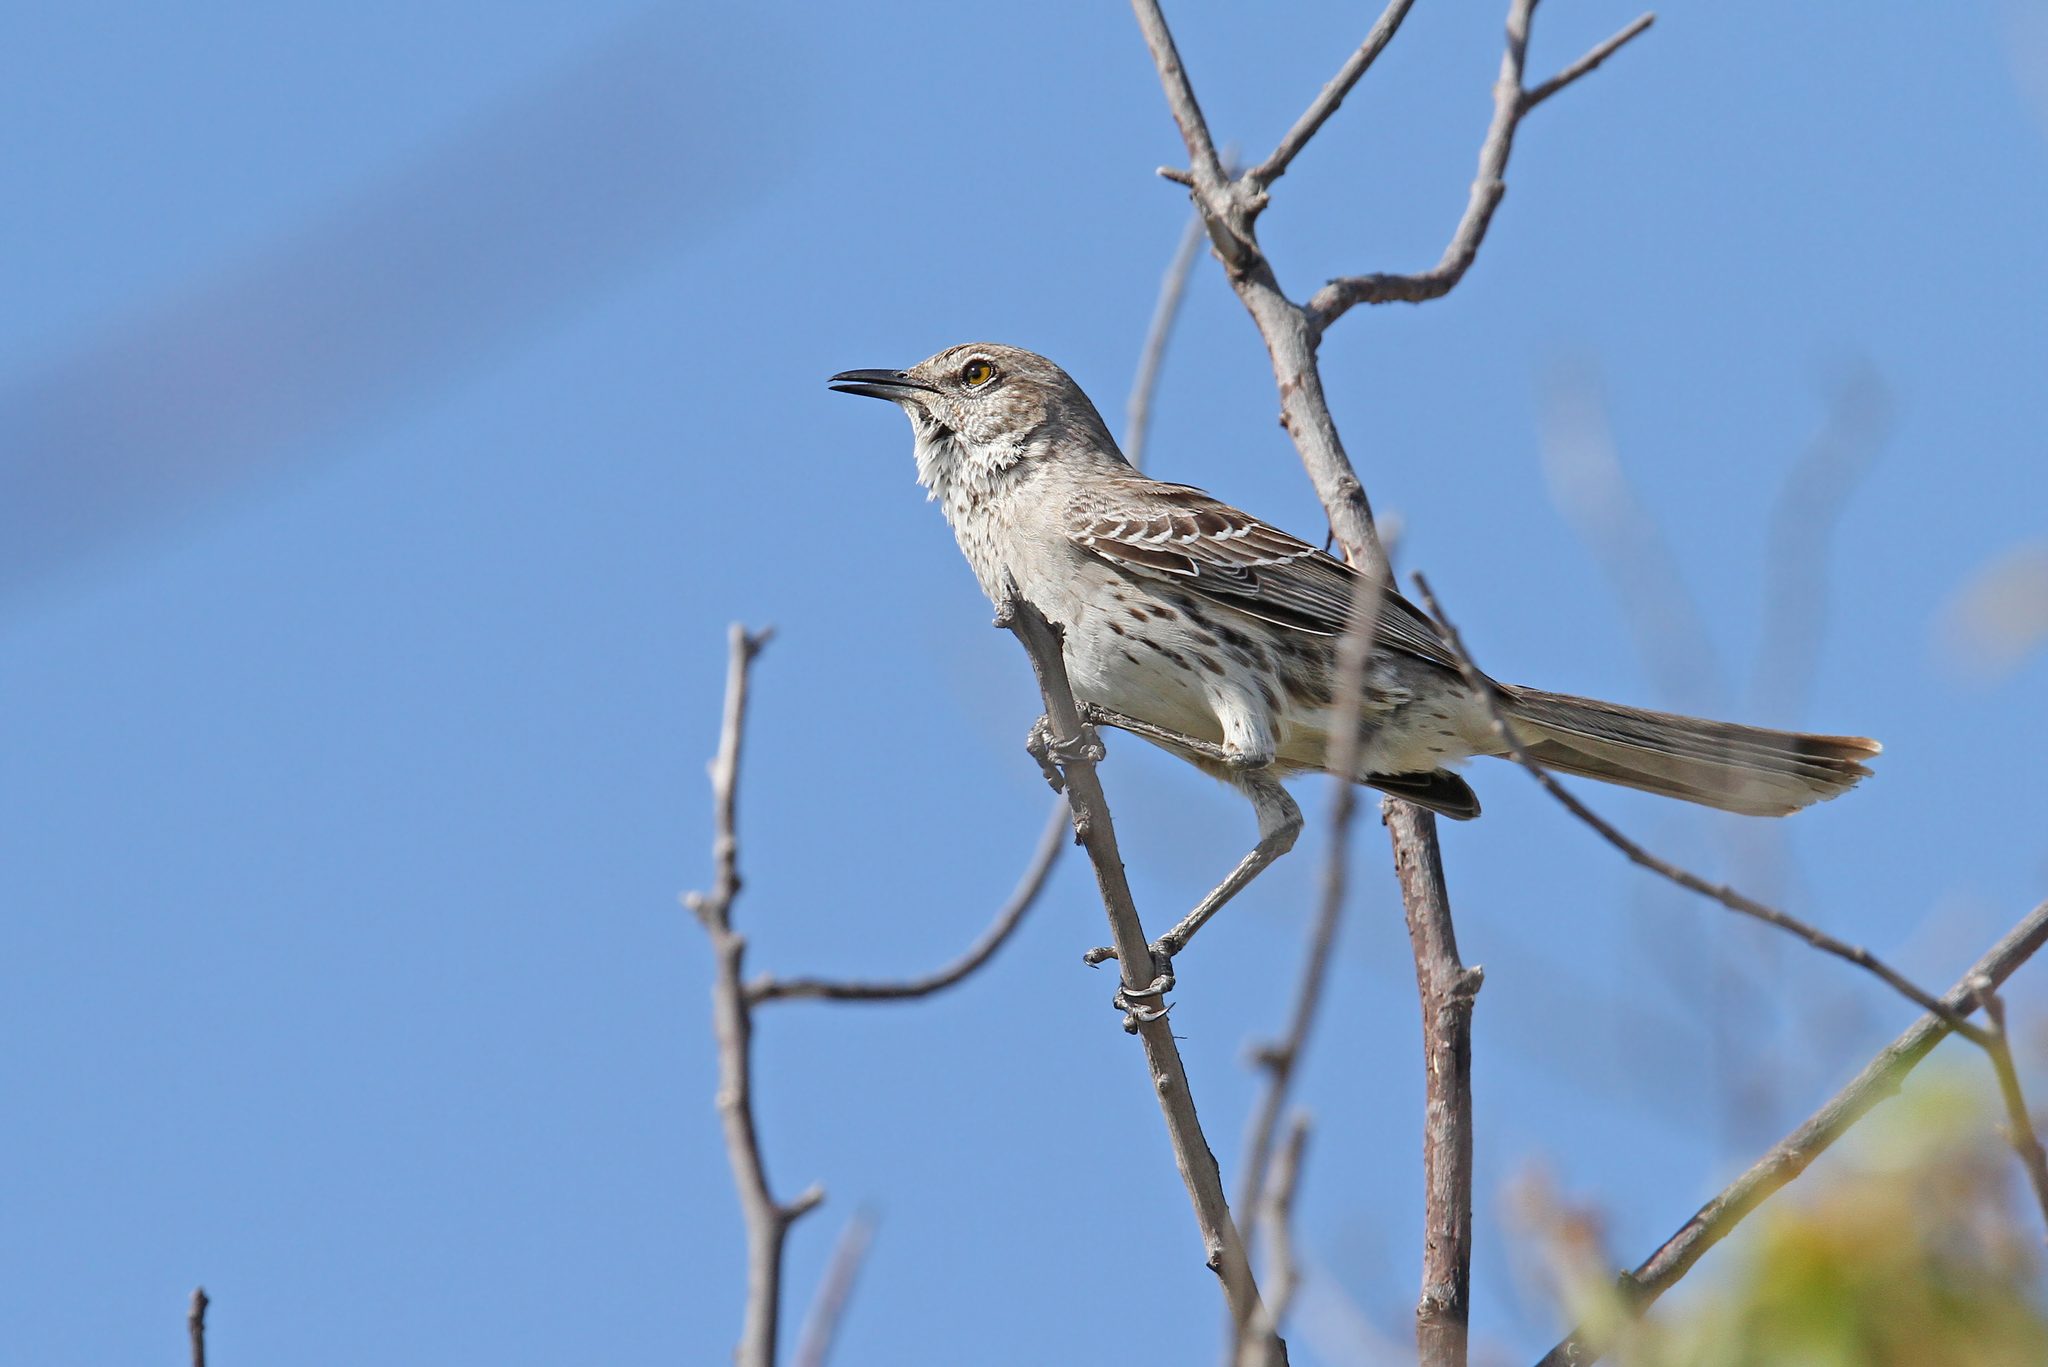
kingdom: Animalia
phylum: Chordata
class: Aves
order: Passeriformes
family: Mimidae
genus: Mimus
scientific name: Mimus gundlachii
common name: Bahama mockingbird
